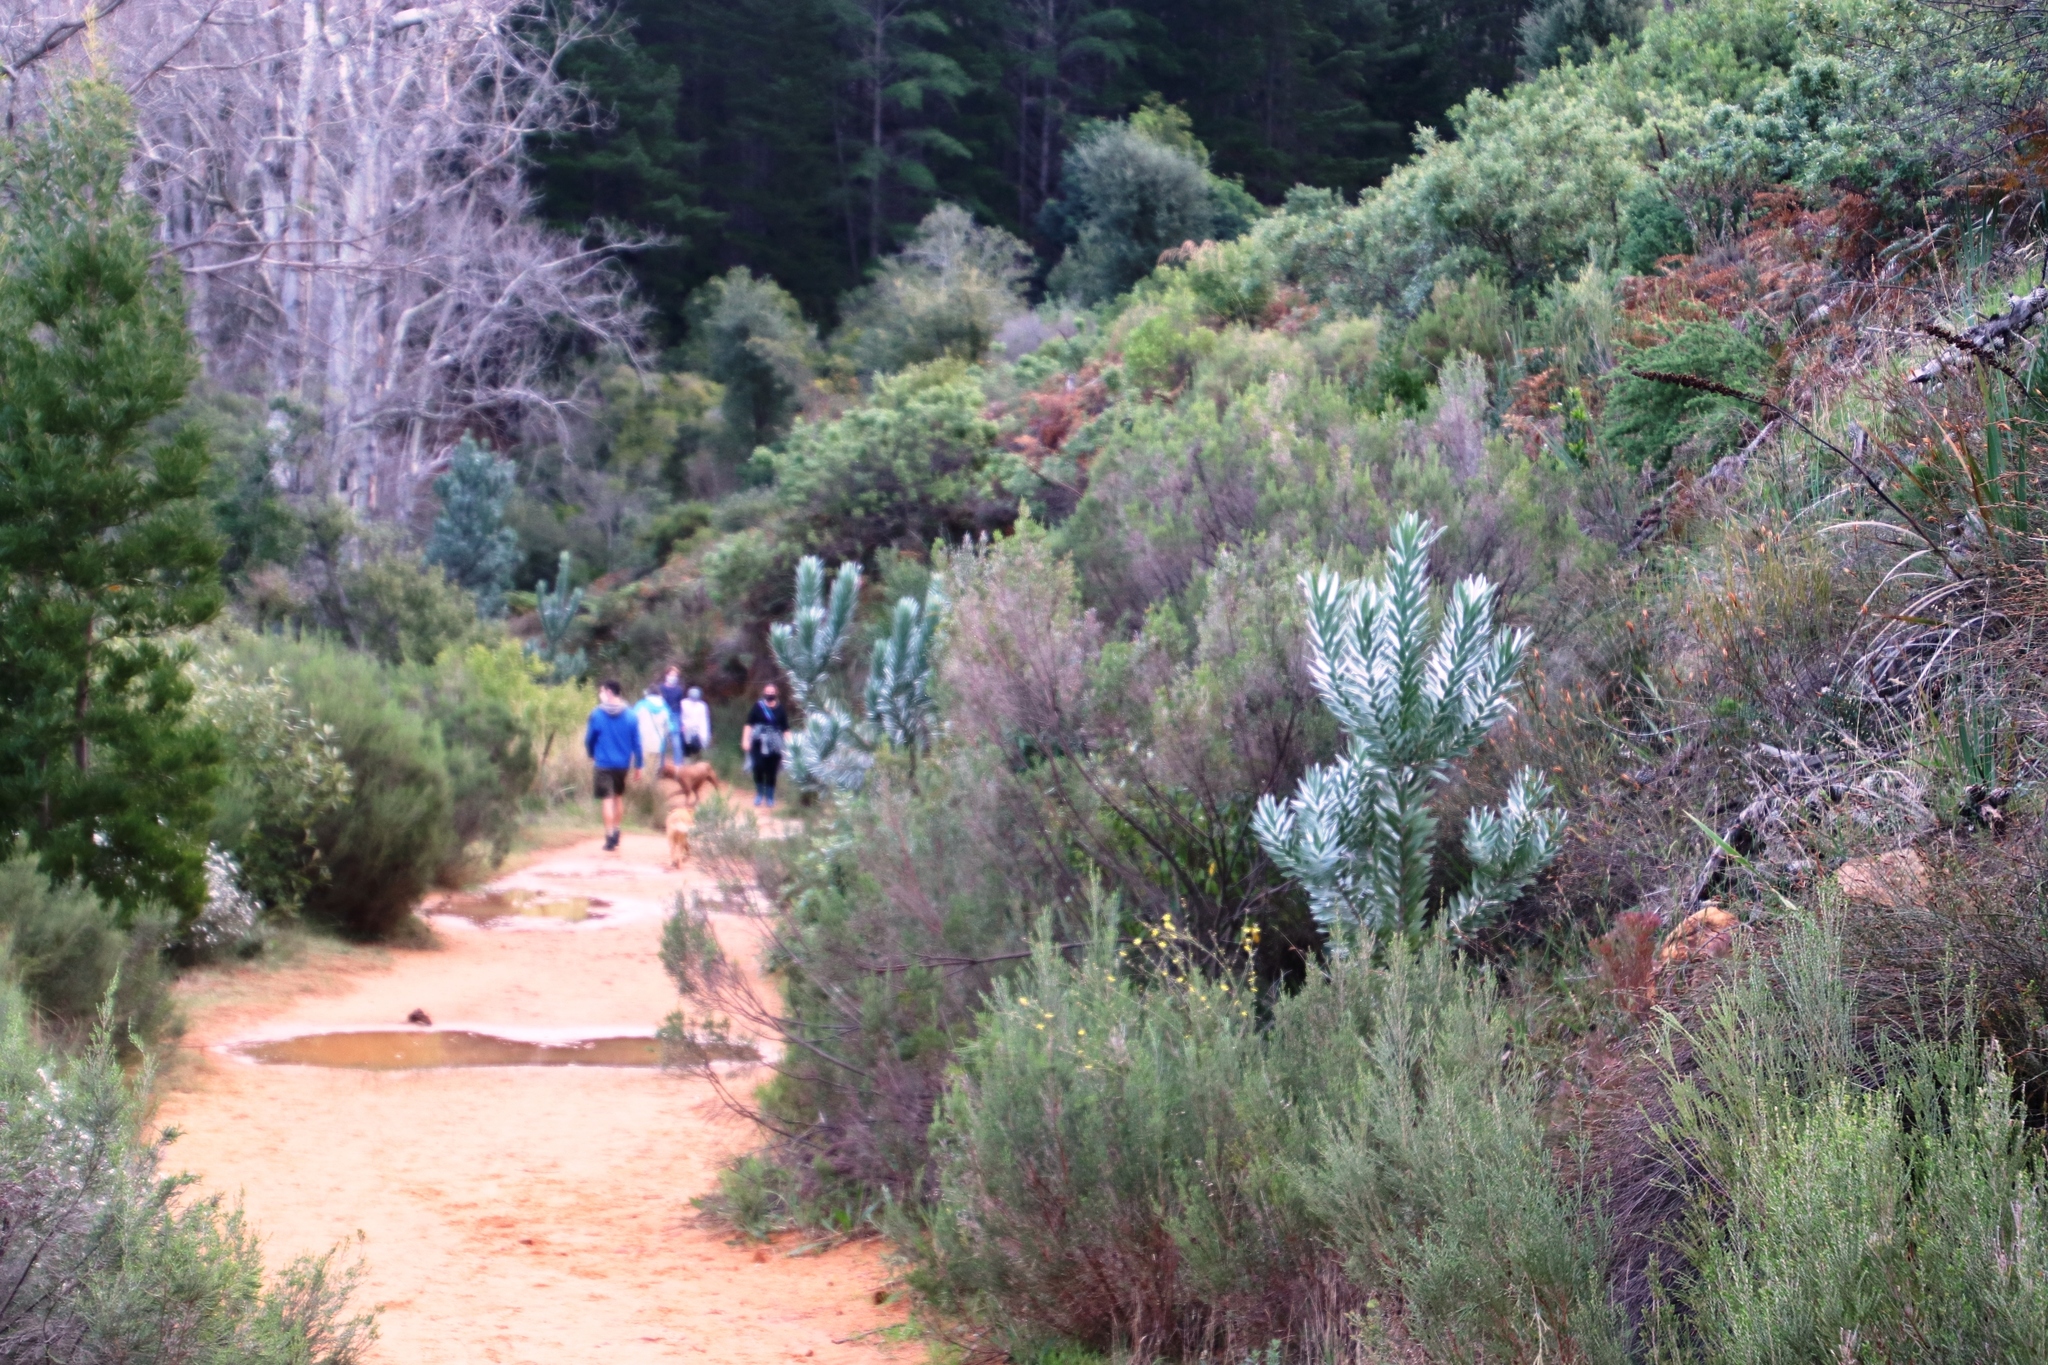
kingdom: Plantae
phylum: Tracheophyta
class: Magnoliopsida
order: Proteales
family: Proteaceae
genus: Leucadendron
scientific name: Leucadendron argenteum
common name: Cape silver tree
